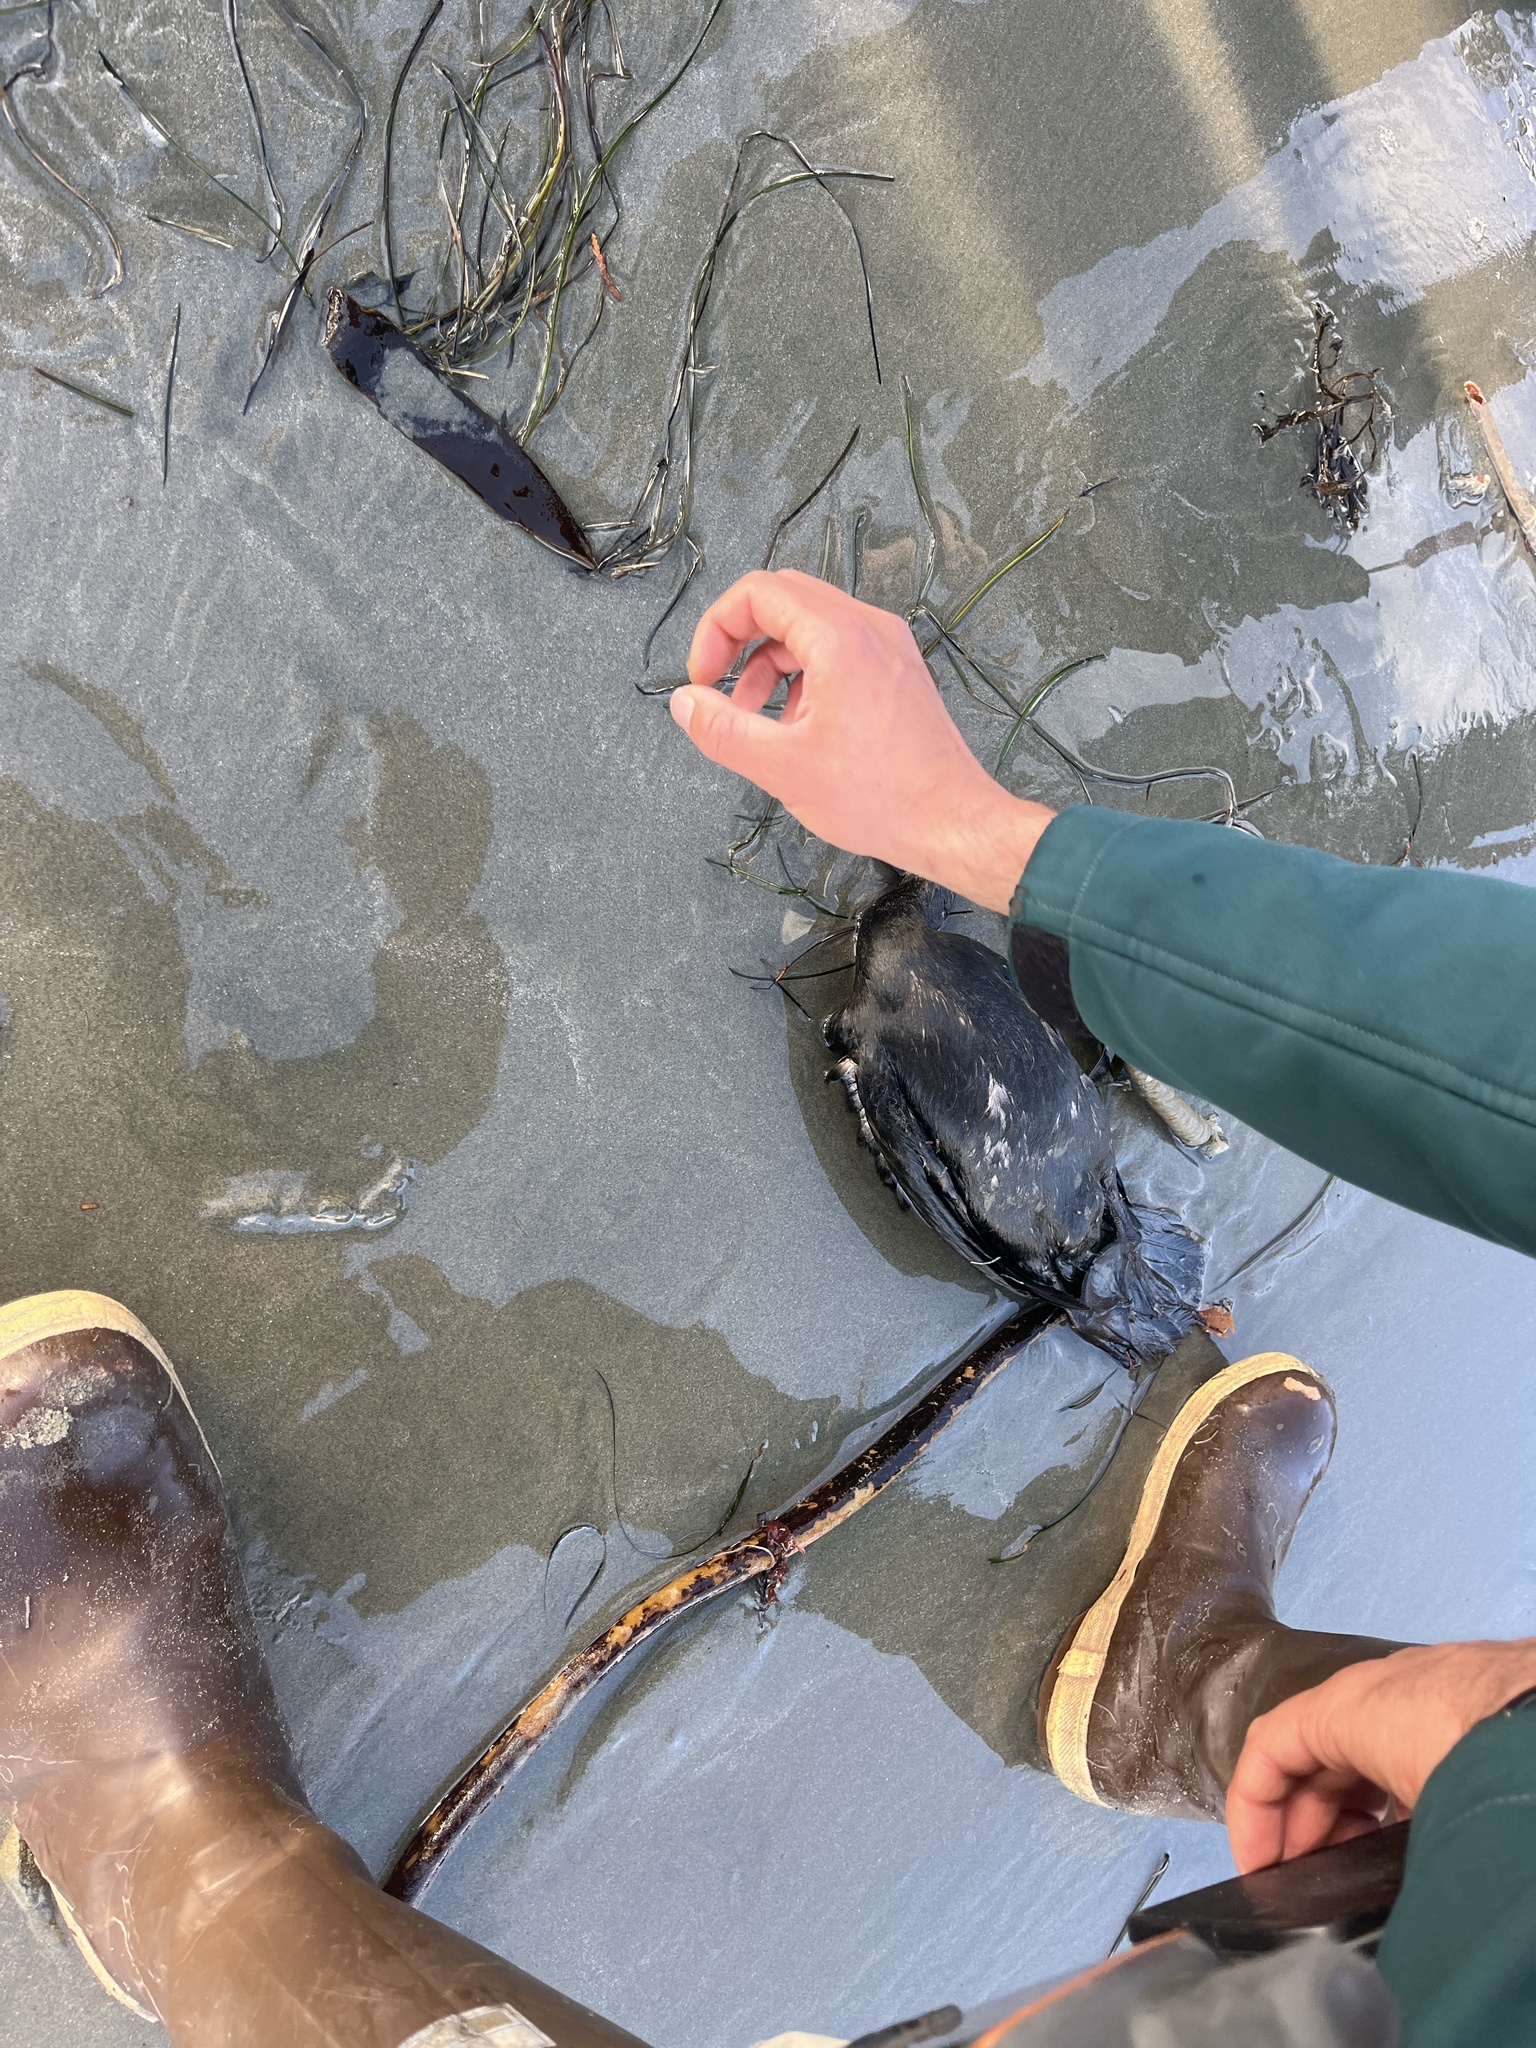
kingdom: Animalia
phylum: Chordata
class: Aves
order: Suliformes
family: Phalacrocoracidae
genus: Phalacrocorax
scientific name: Phalacrocorax pelagicus
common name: Pelagic cormorant
